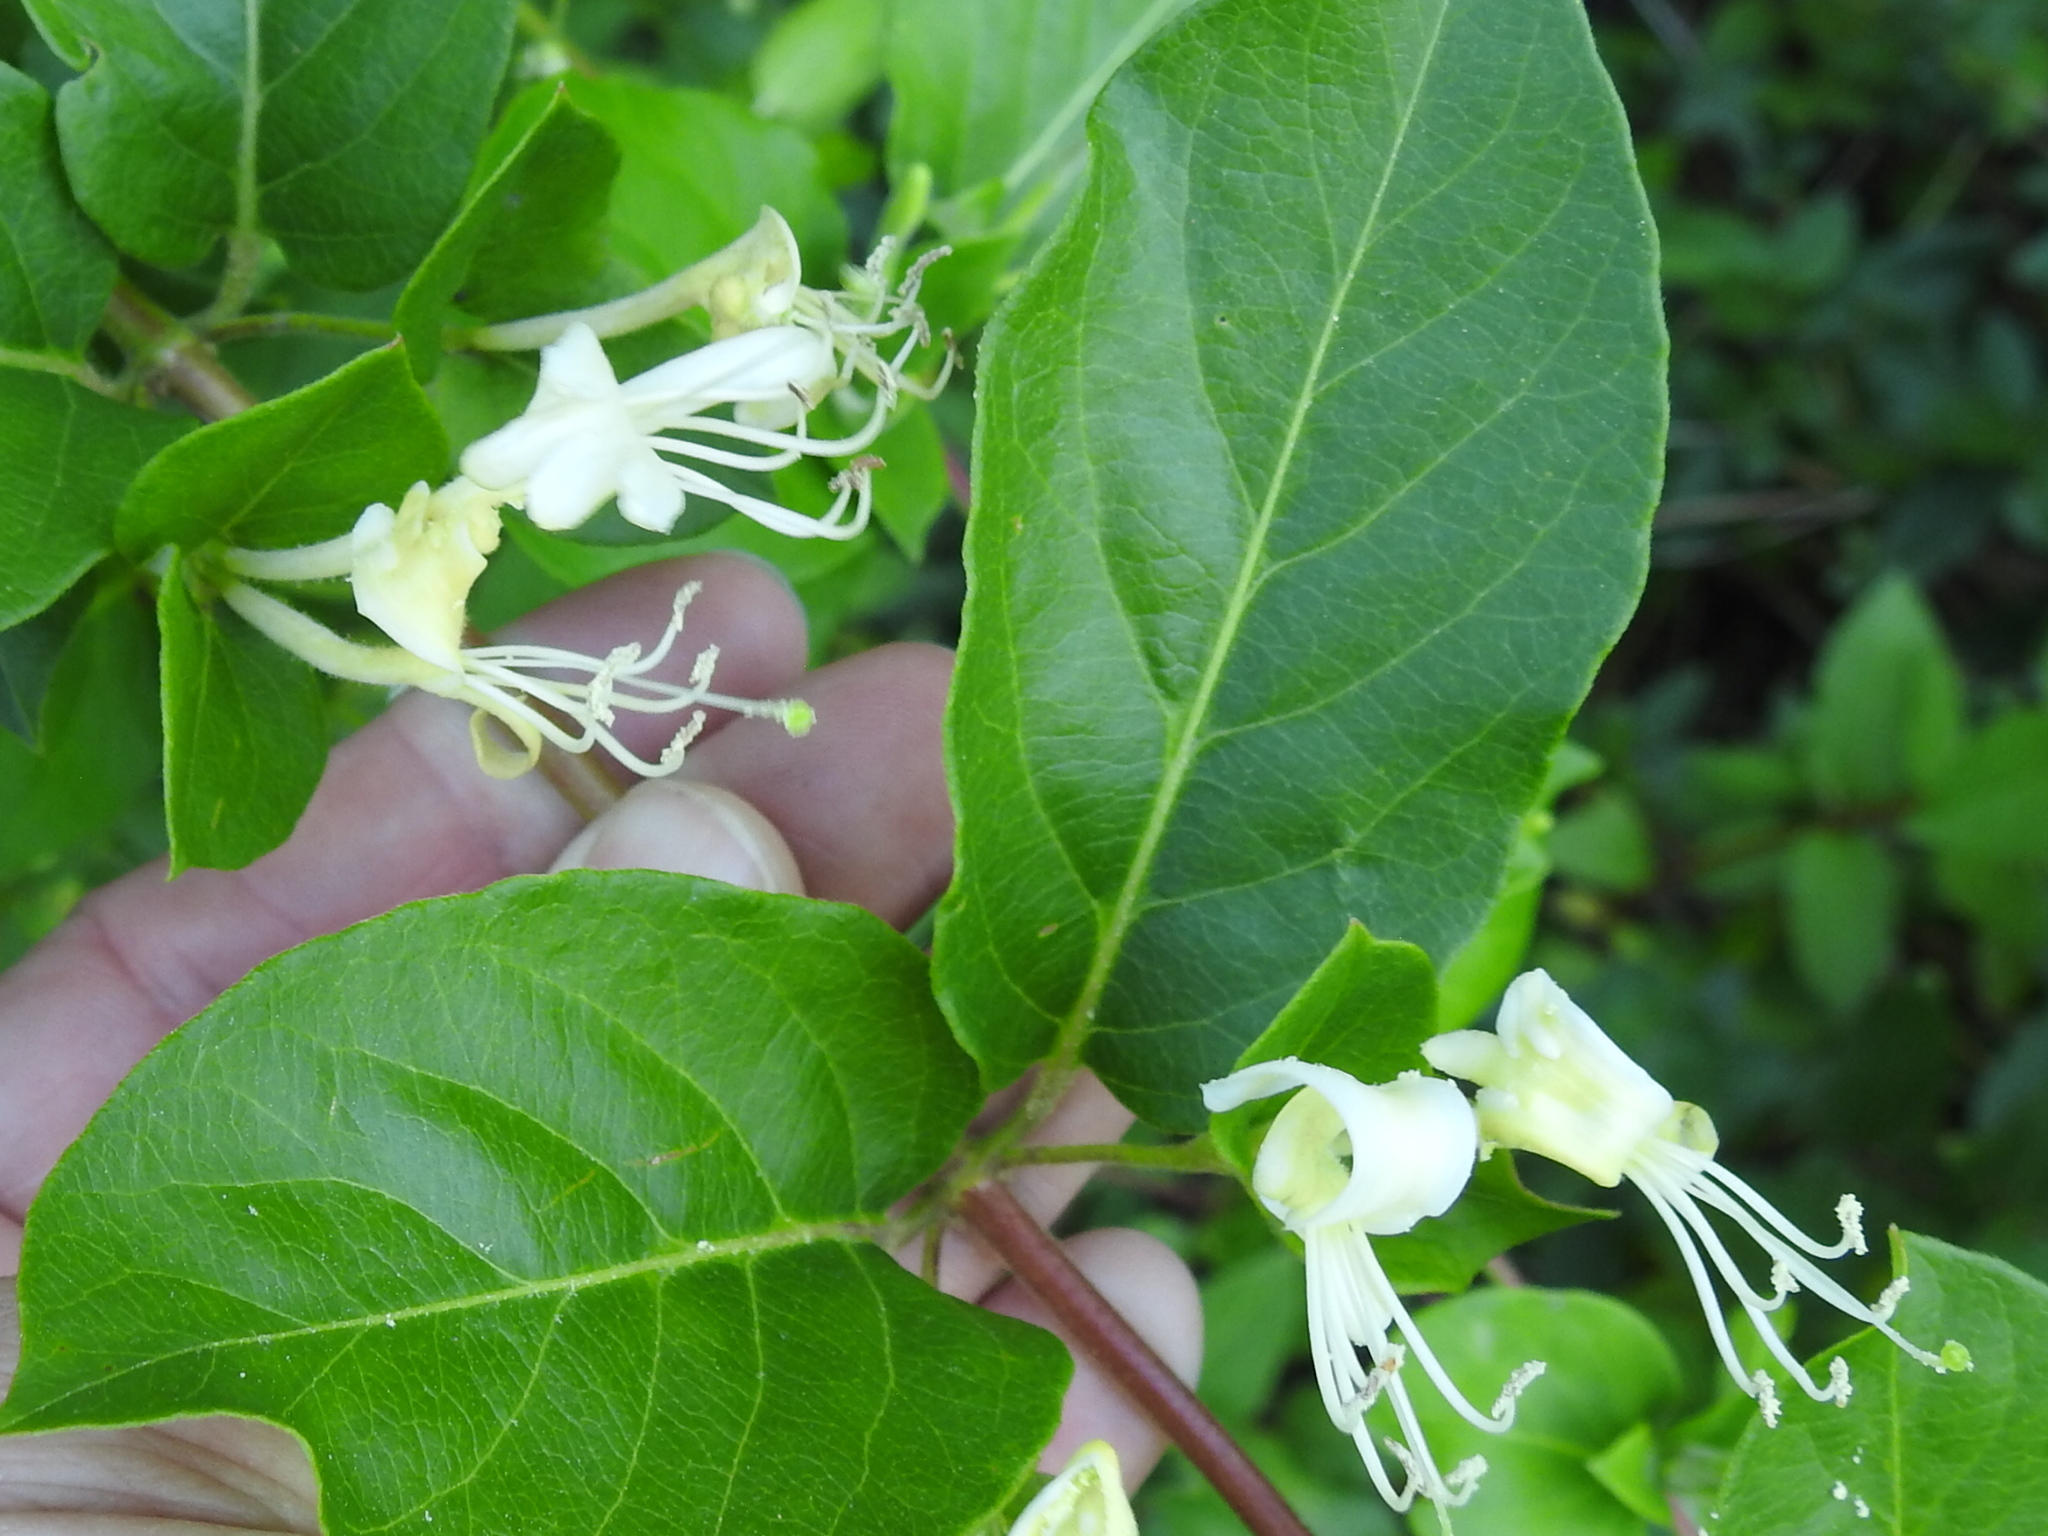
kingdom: Plantae
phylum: Tracheophyta
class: Magnoliopsida
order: Dipsacales
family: Caprifoliaceae
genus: Lonicera
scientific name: Lonicera japonica
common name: Japanese honeysuckle
